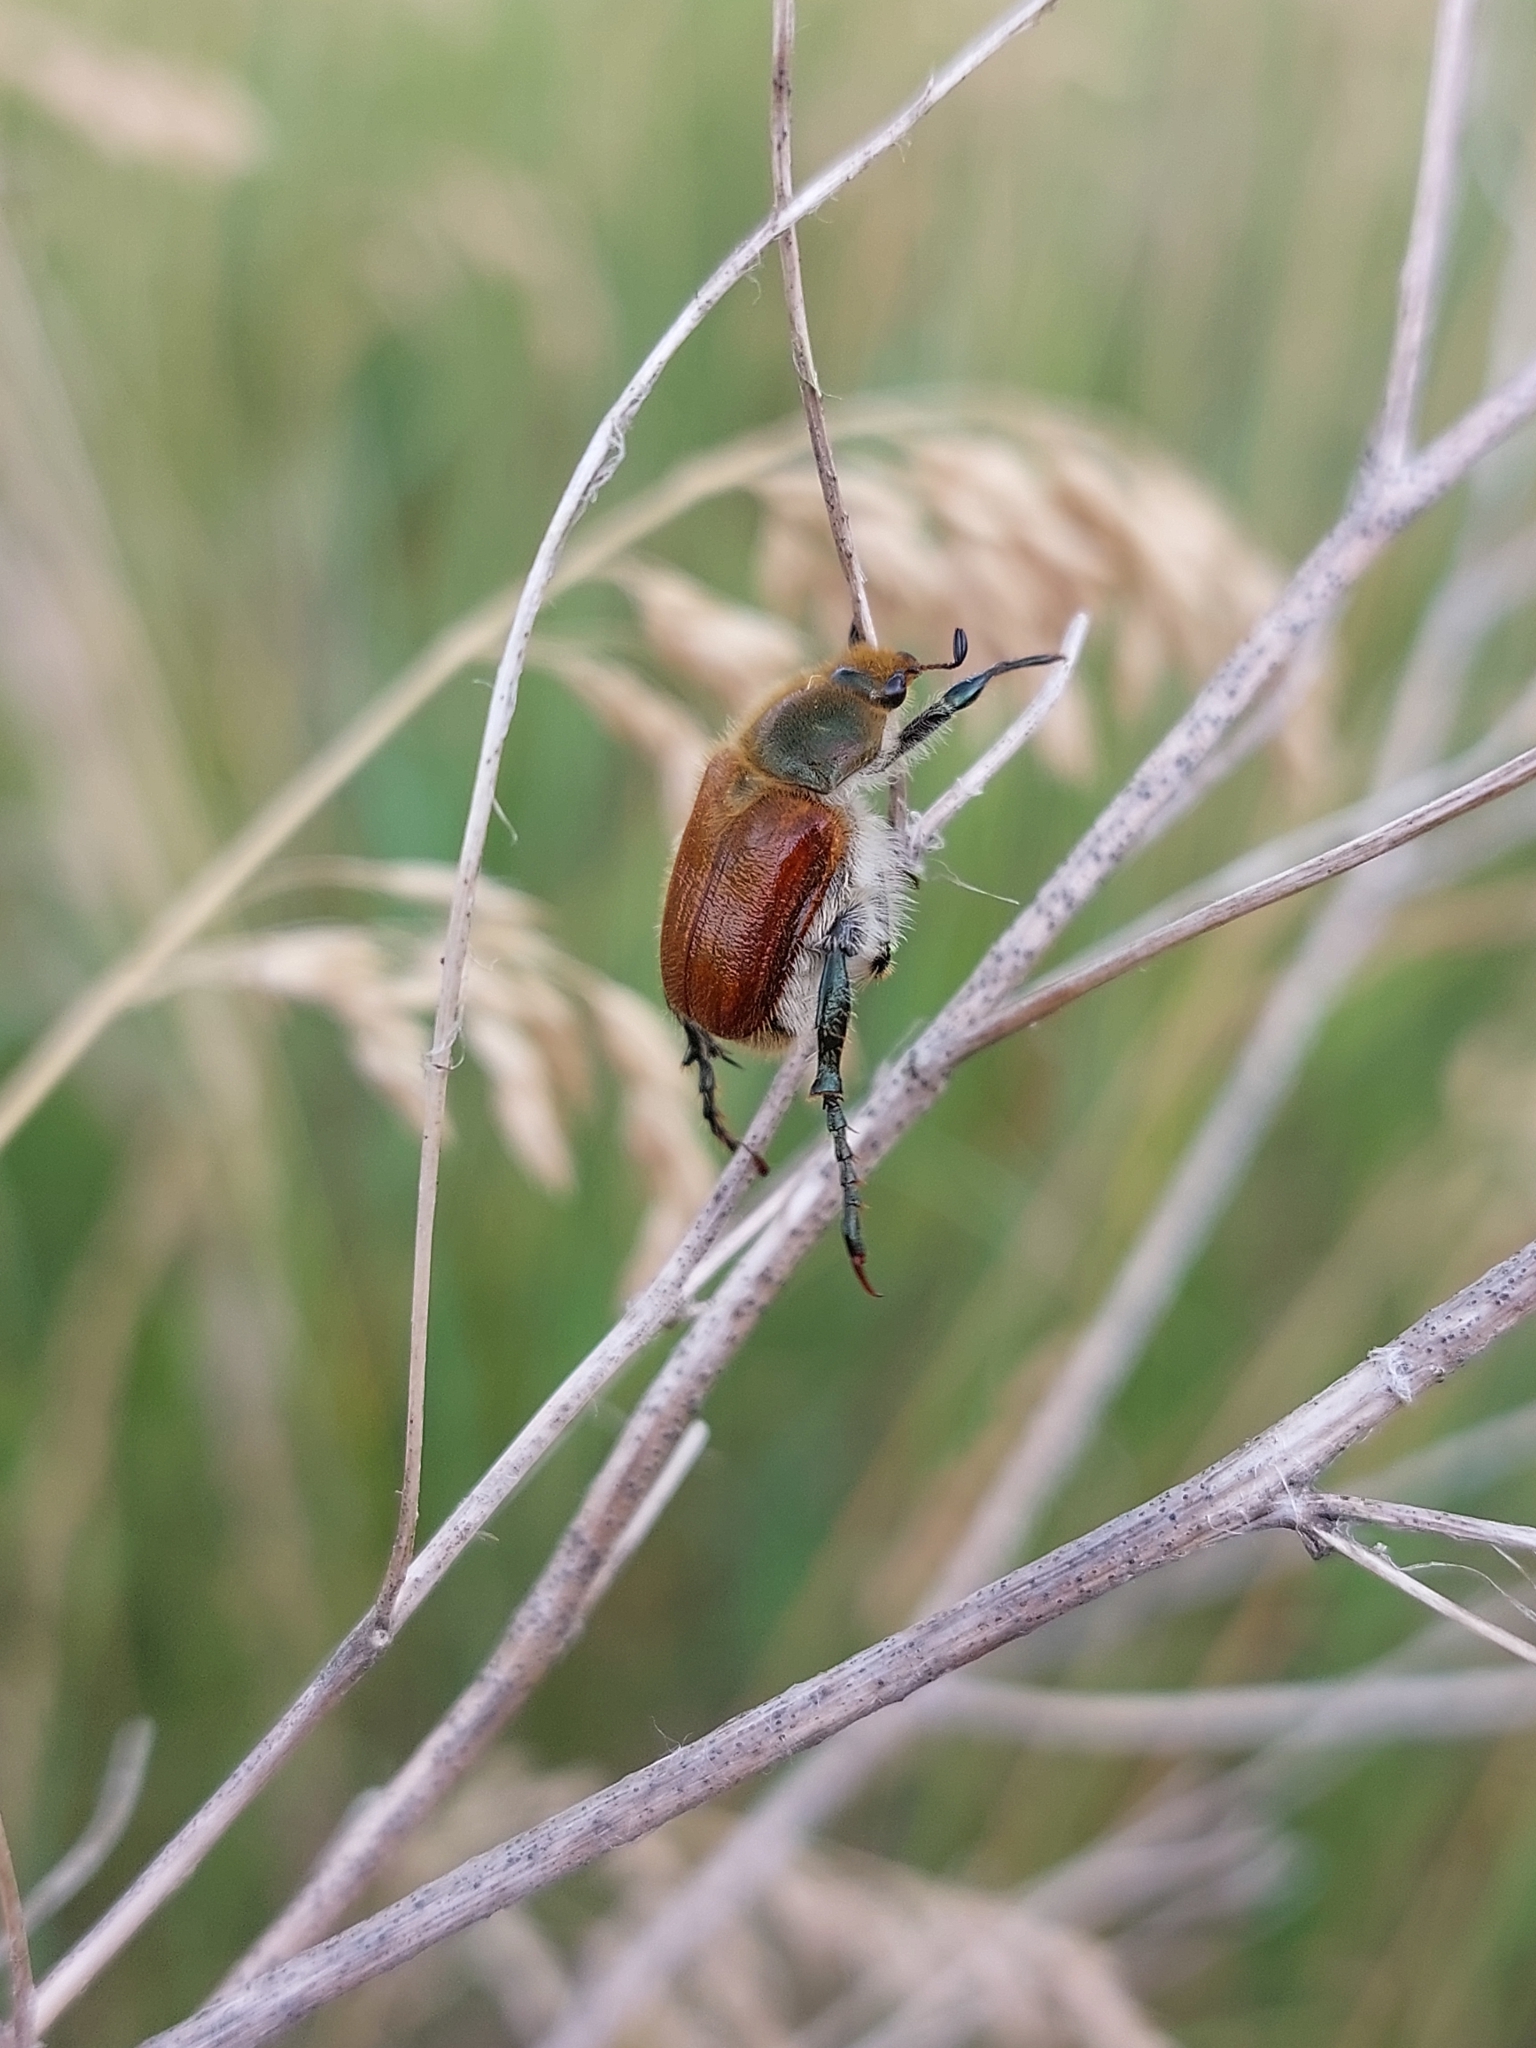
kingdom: Animalia
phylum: Arthropoda
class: Insecta
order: Coleoptera
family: Scarabaeidae
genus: Chaetopteroplia
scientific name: Chaetopteroplia segetum
